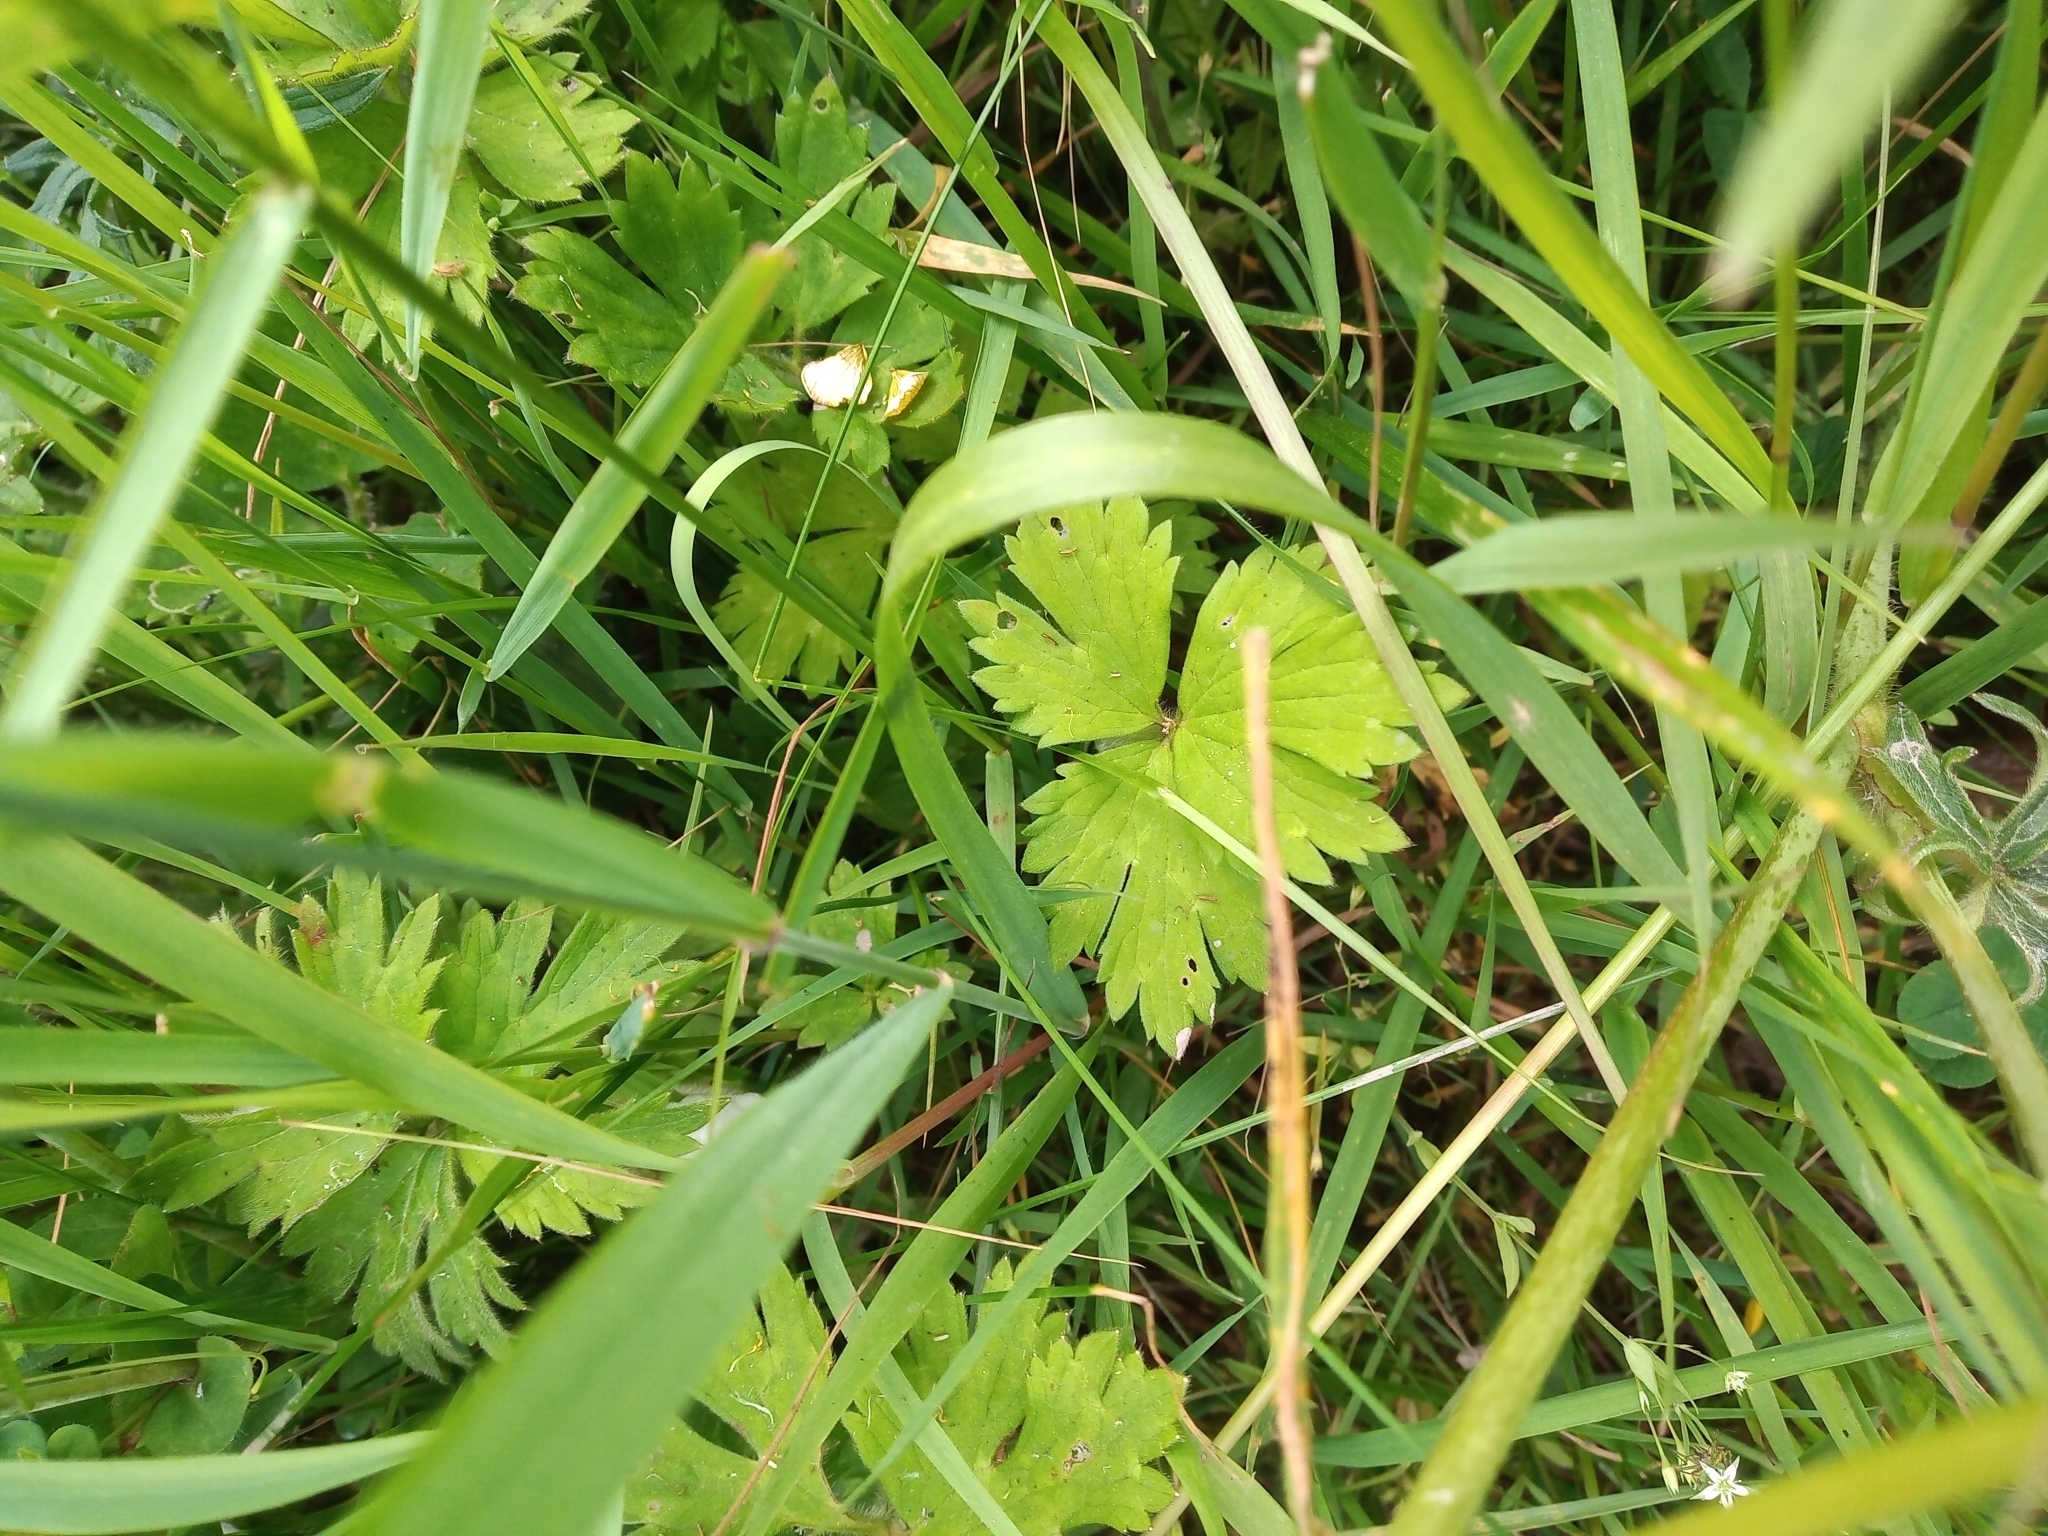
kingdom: Plantae
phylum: Tracheophyta
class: Magnoliopsida
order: Ranunculales
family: Ranunculaceae
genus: Ranunculus
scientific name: Ranunculus repens
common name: Creeping buttercup
